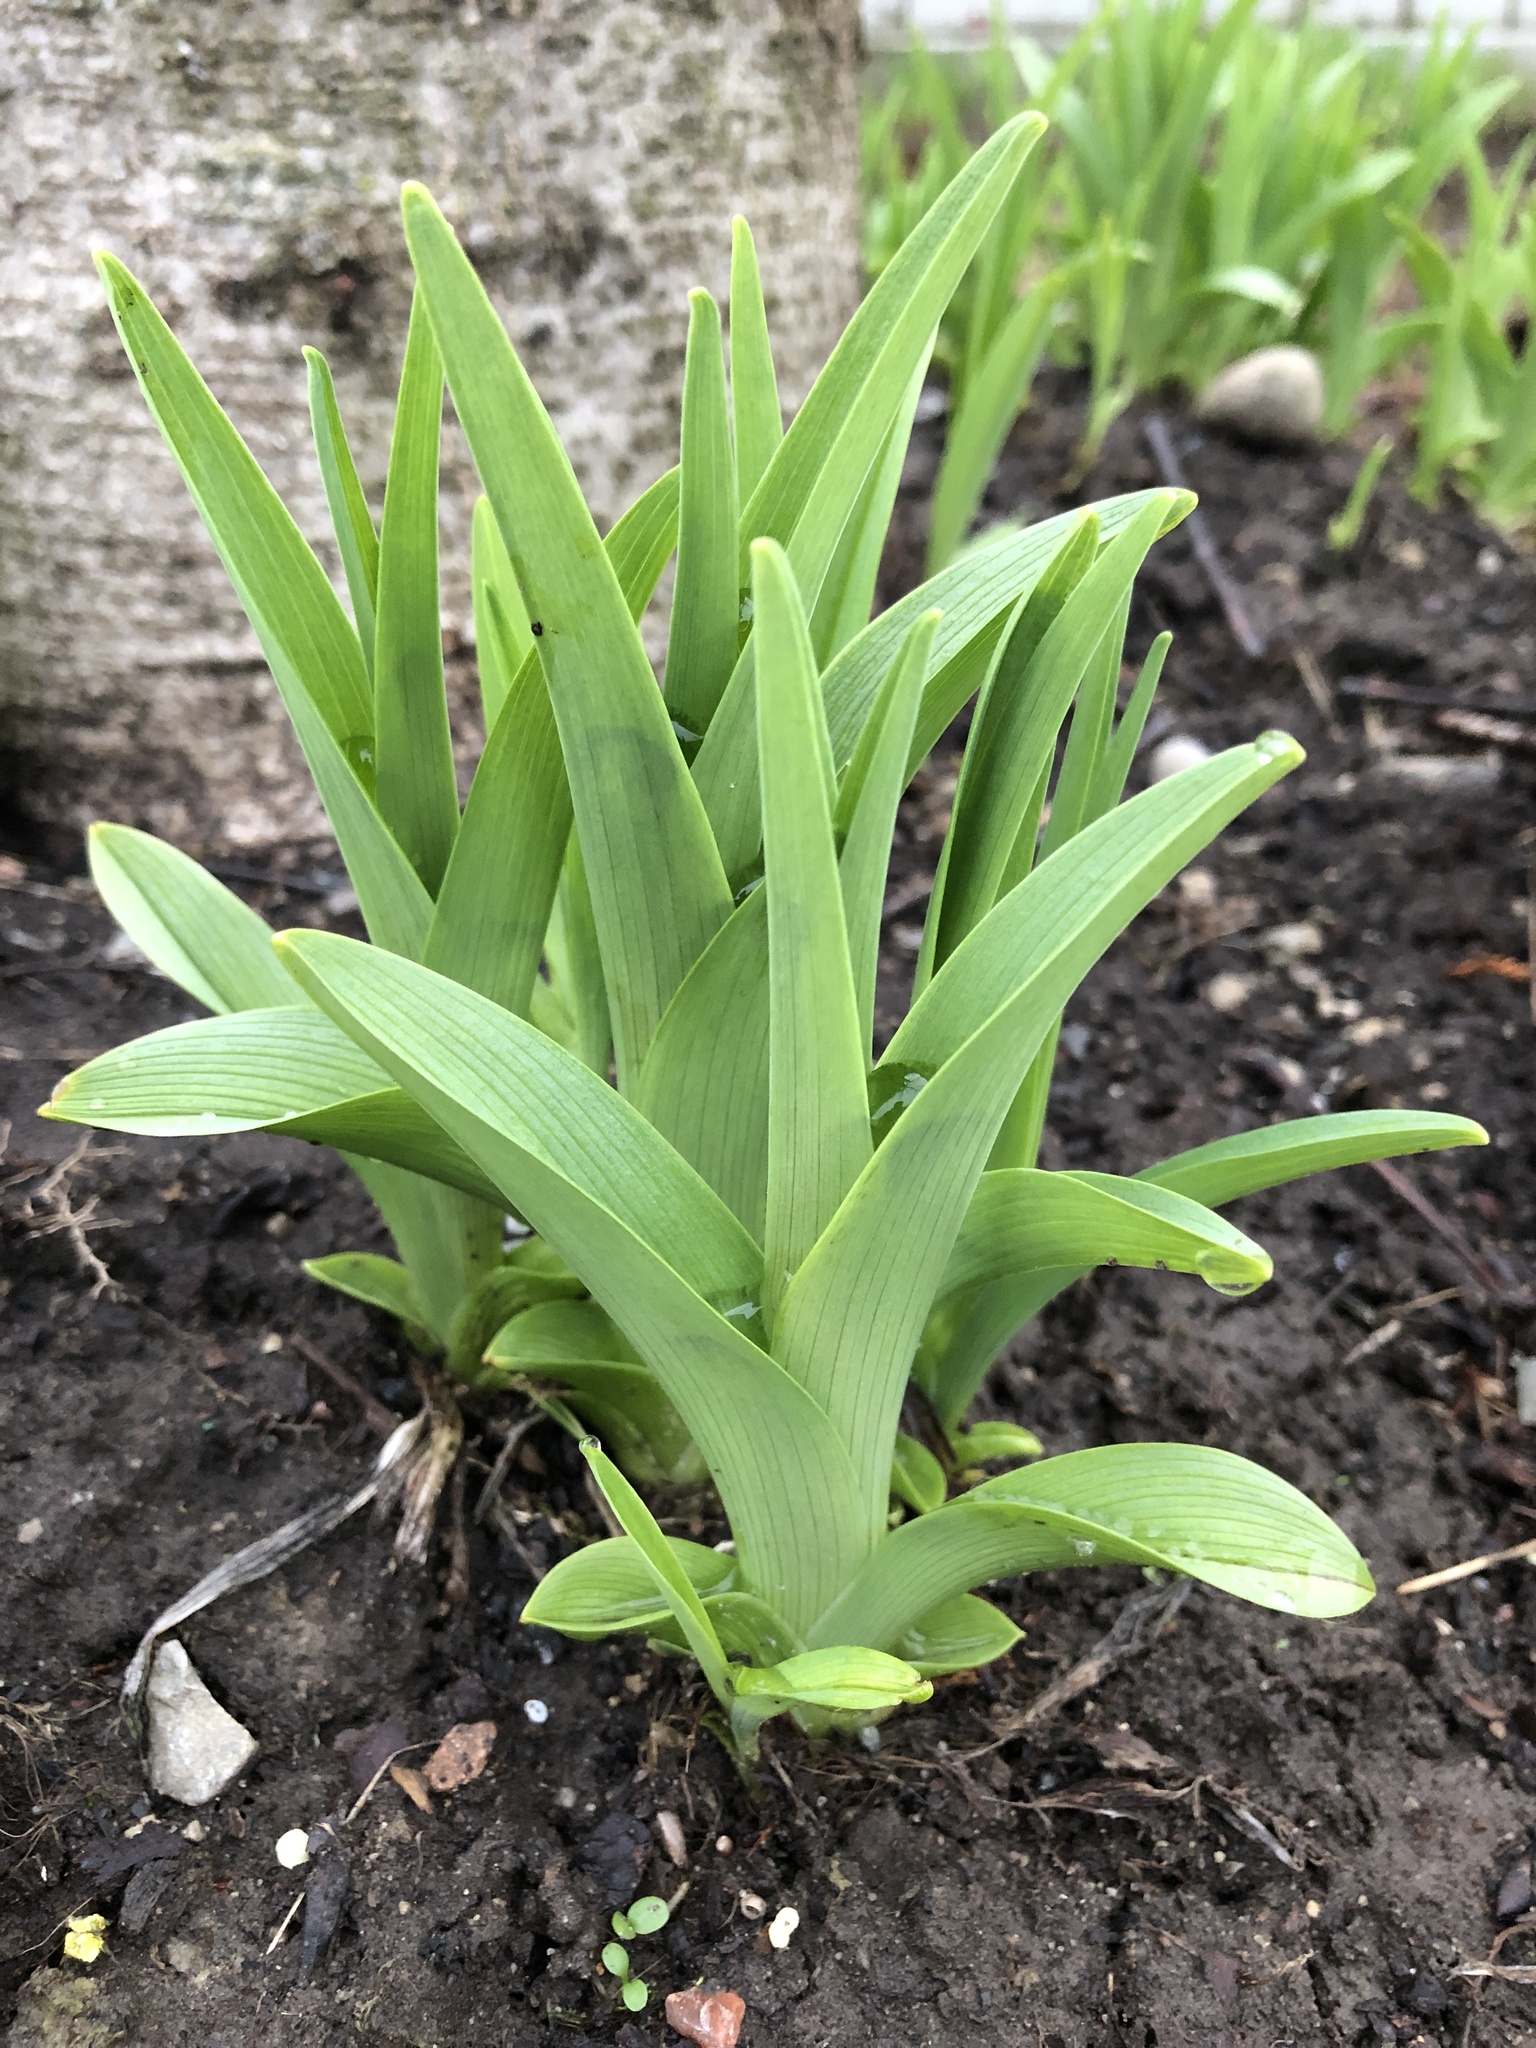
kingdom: Plantae
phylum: Tracheophyta
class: Liliopsida
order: Asparagales
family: Asphodelaceae
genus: Hemerocallis
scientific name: Hemerocallis fulva
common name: Orange day-lily
